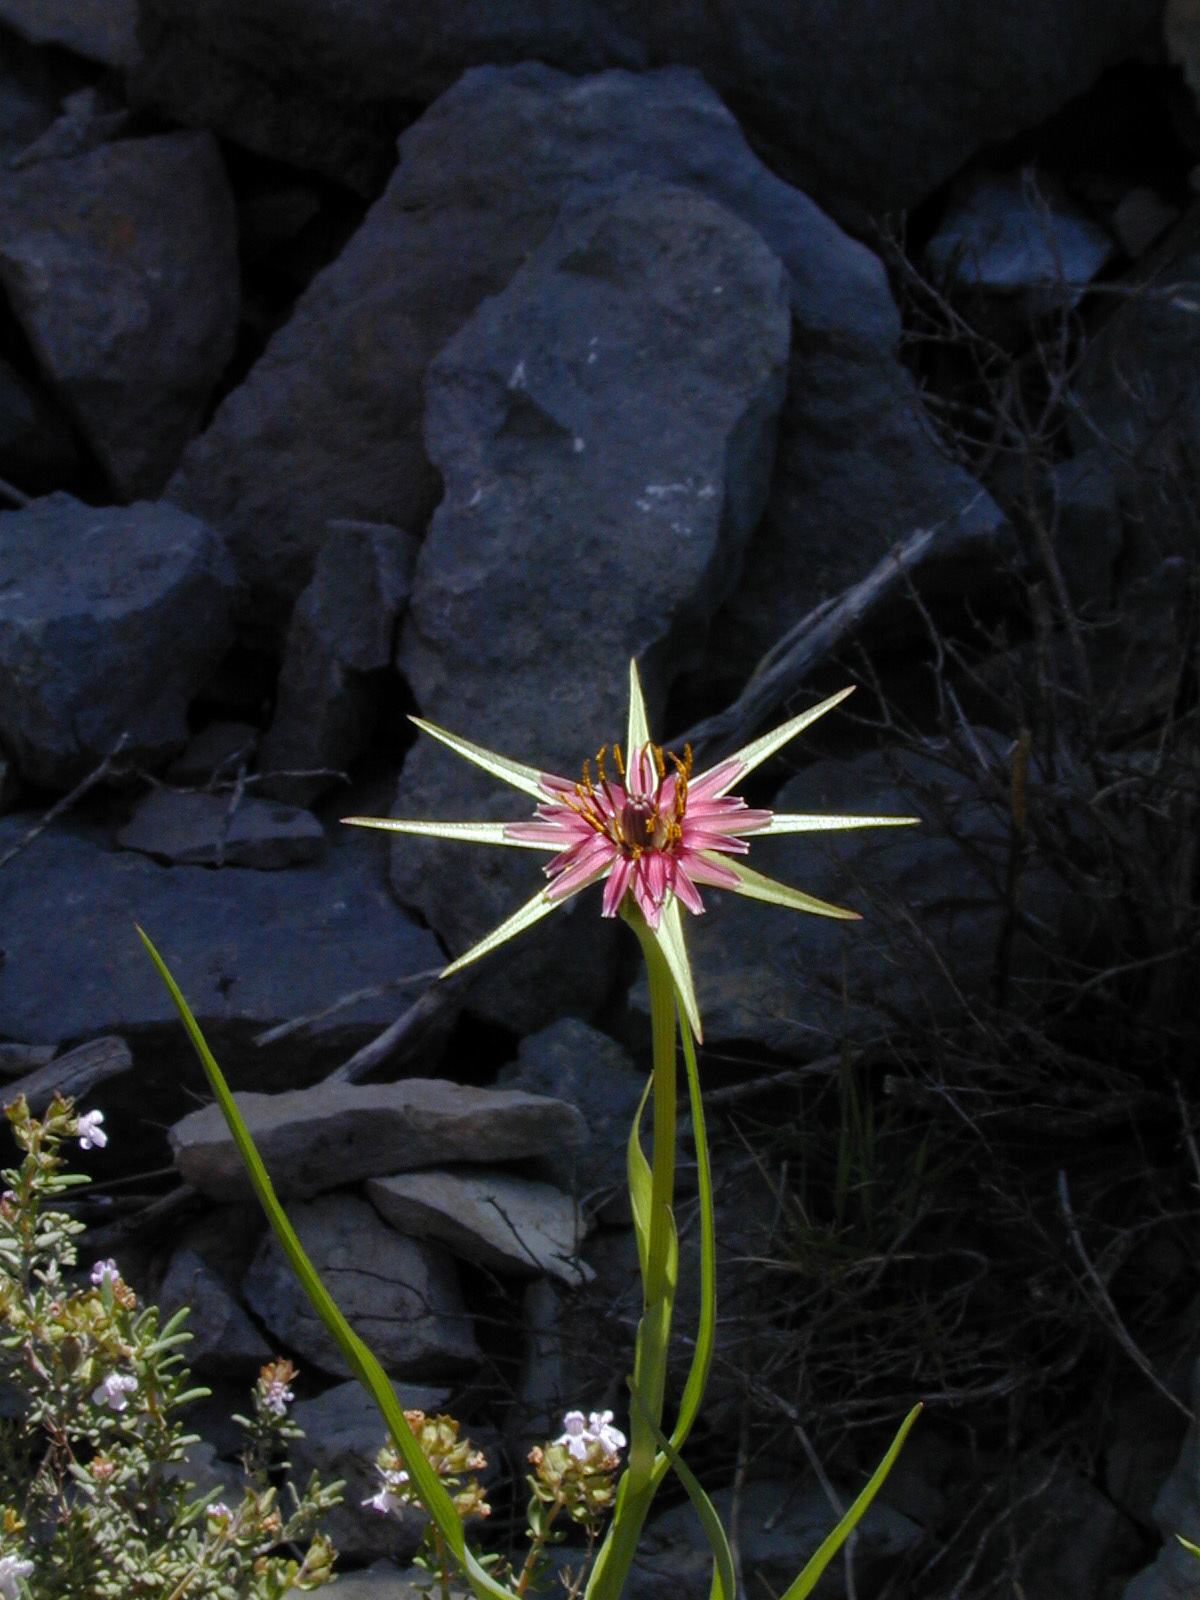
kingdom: Plantae
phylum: Tracheophyta
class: Magnoliopsida
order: Asterales
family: Asteraceae
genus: Tragopogon
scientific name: Tragopogon porrifolius
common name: Salsify
